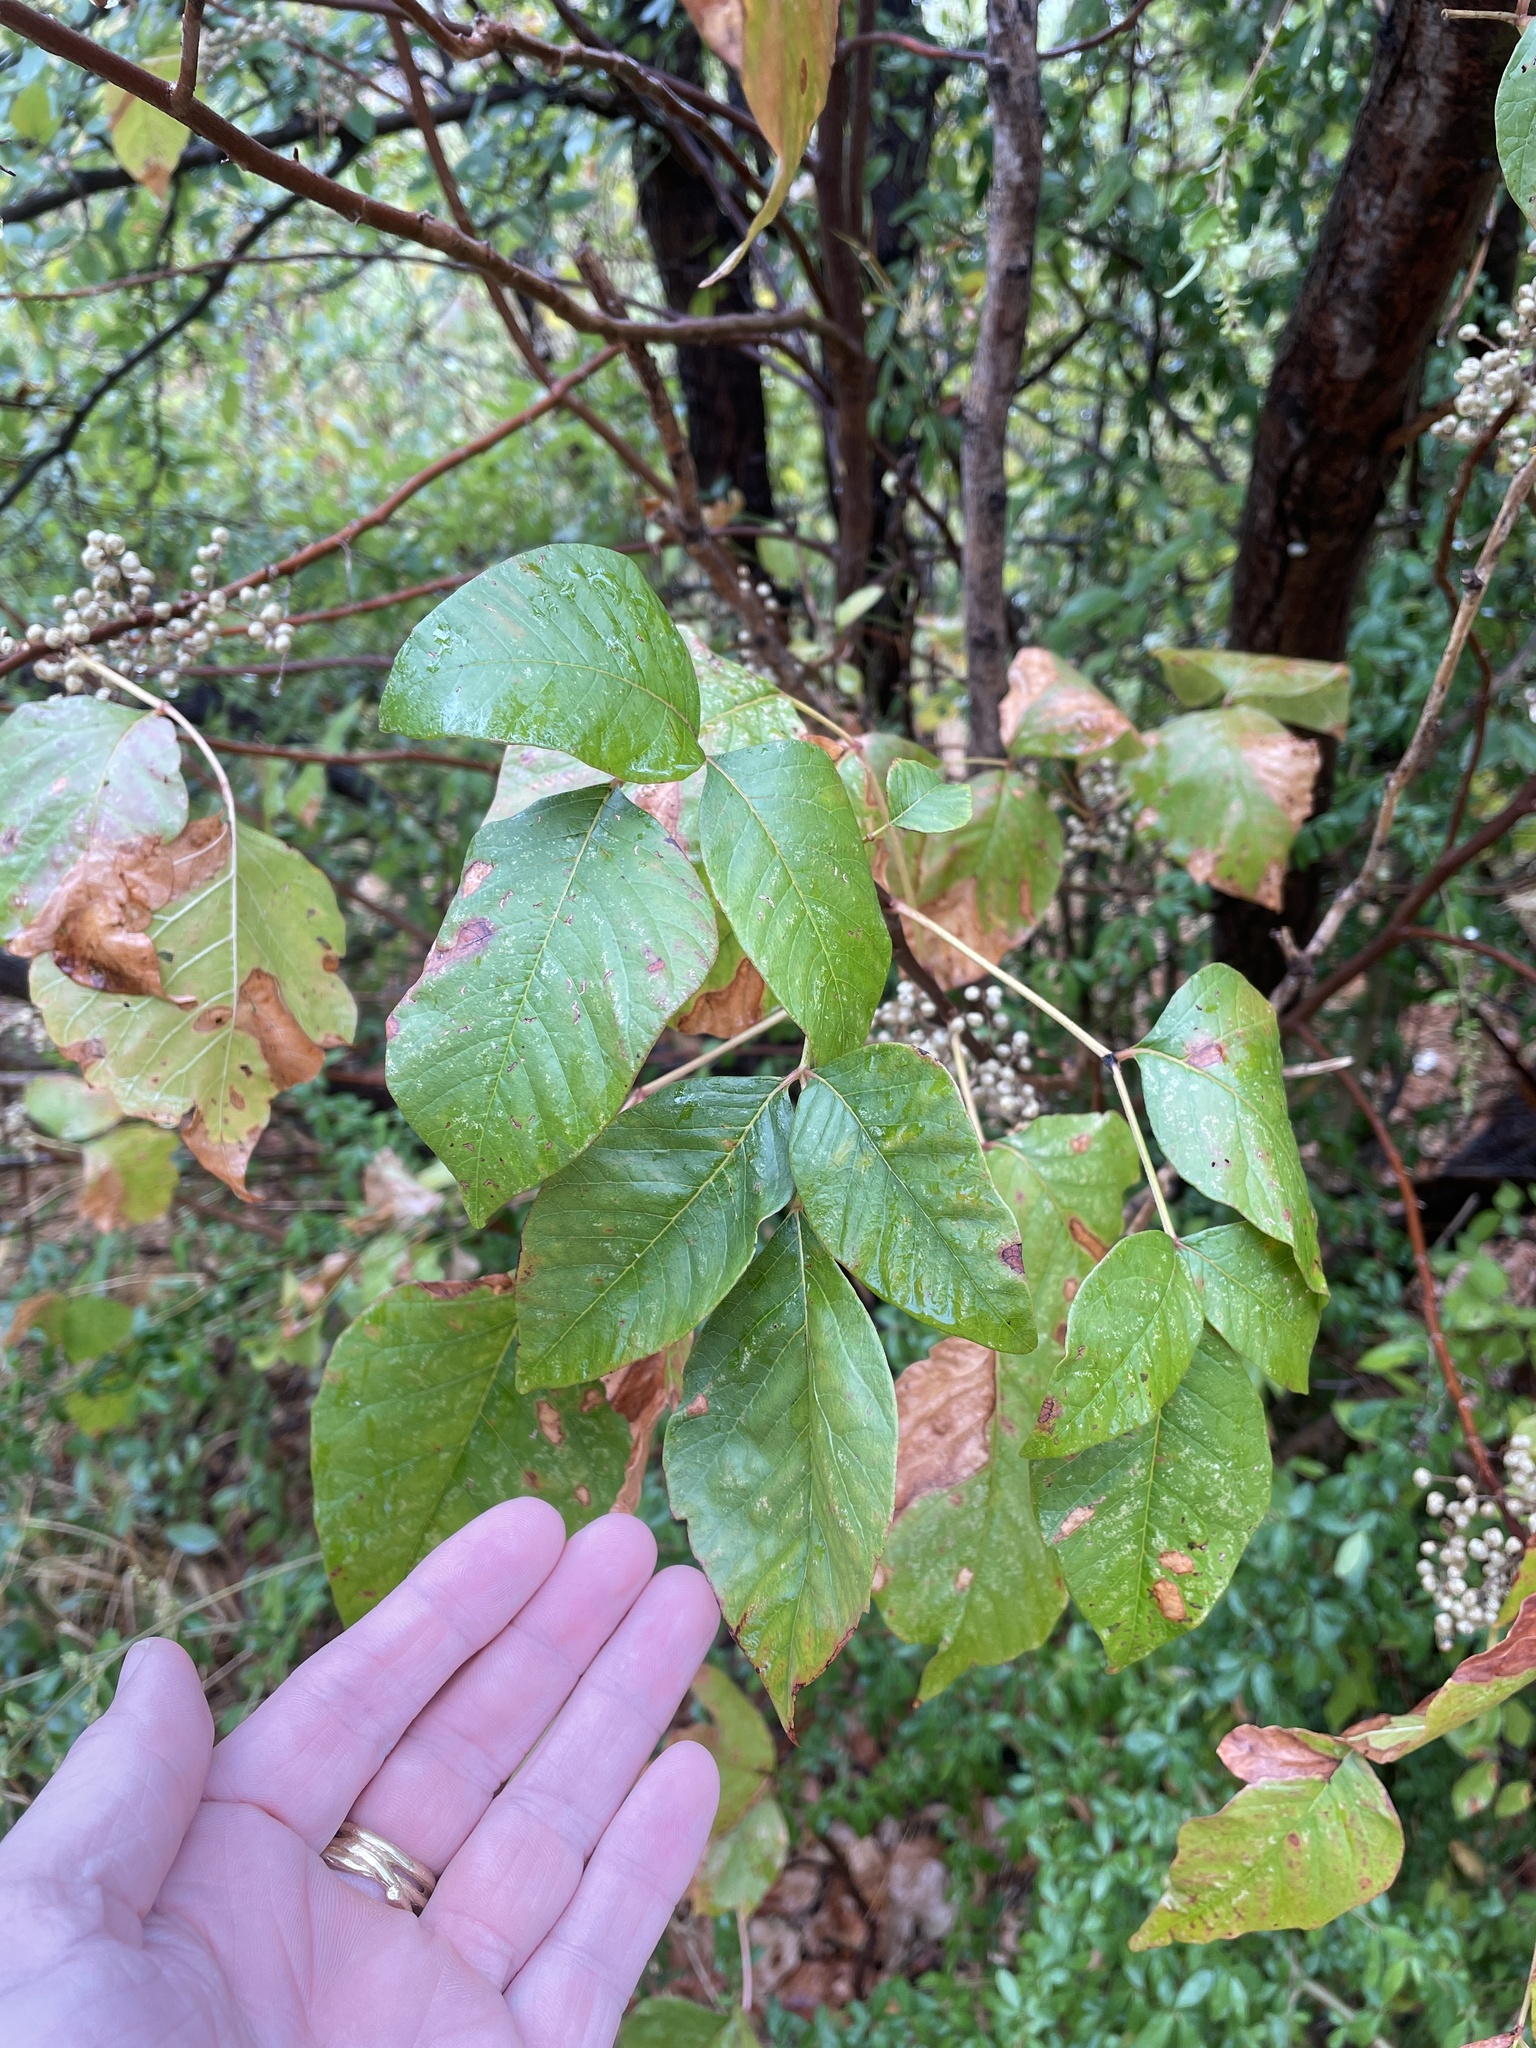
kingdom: Plantae
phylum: Tracheophyta
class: Magnoliopsida
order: Sapindales
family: Anacardiaceae
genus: Toxicodendron
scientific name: Toxicodendron radicans
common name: Poison ivy
